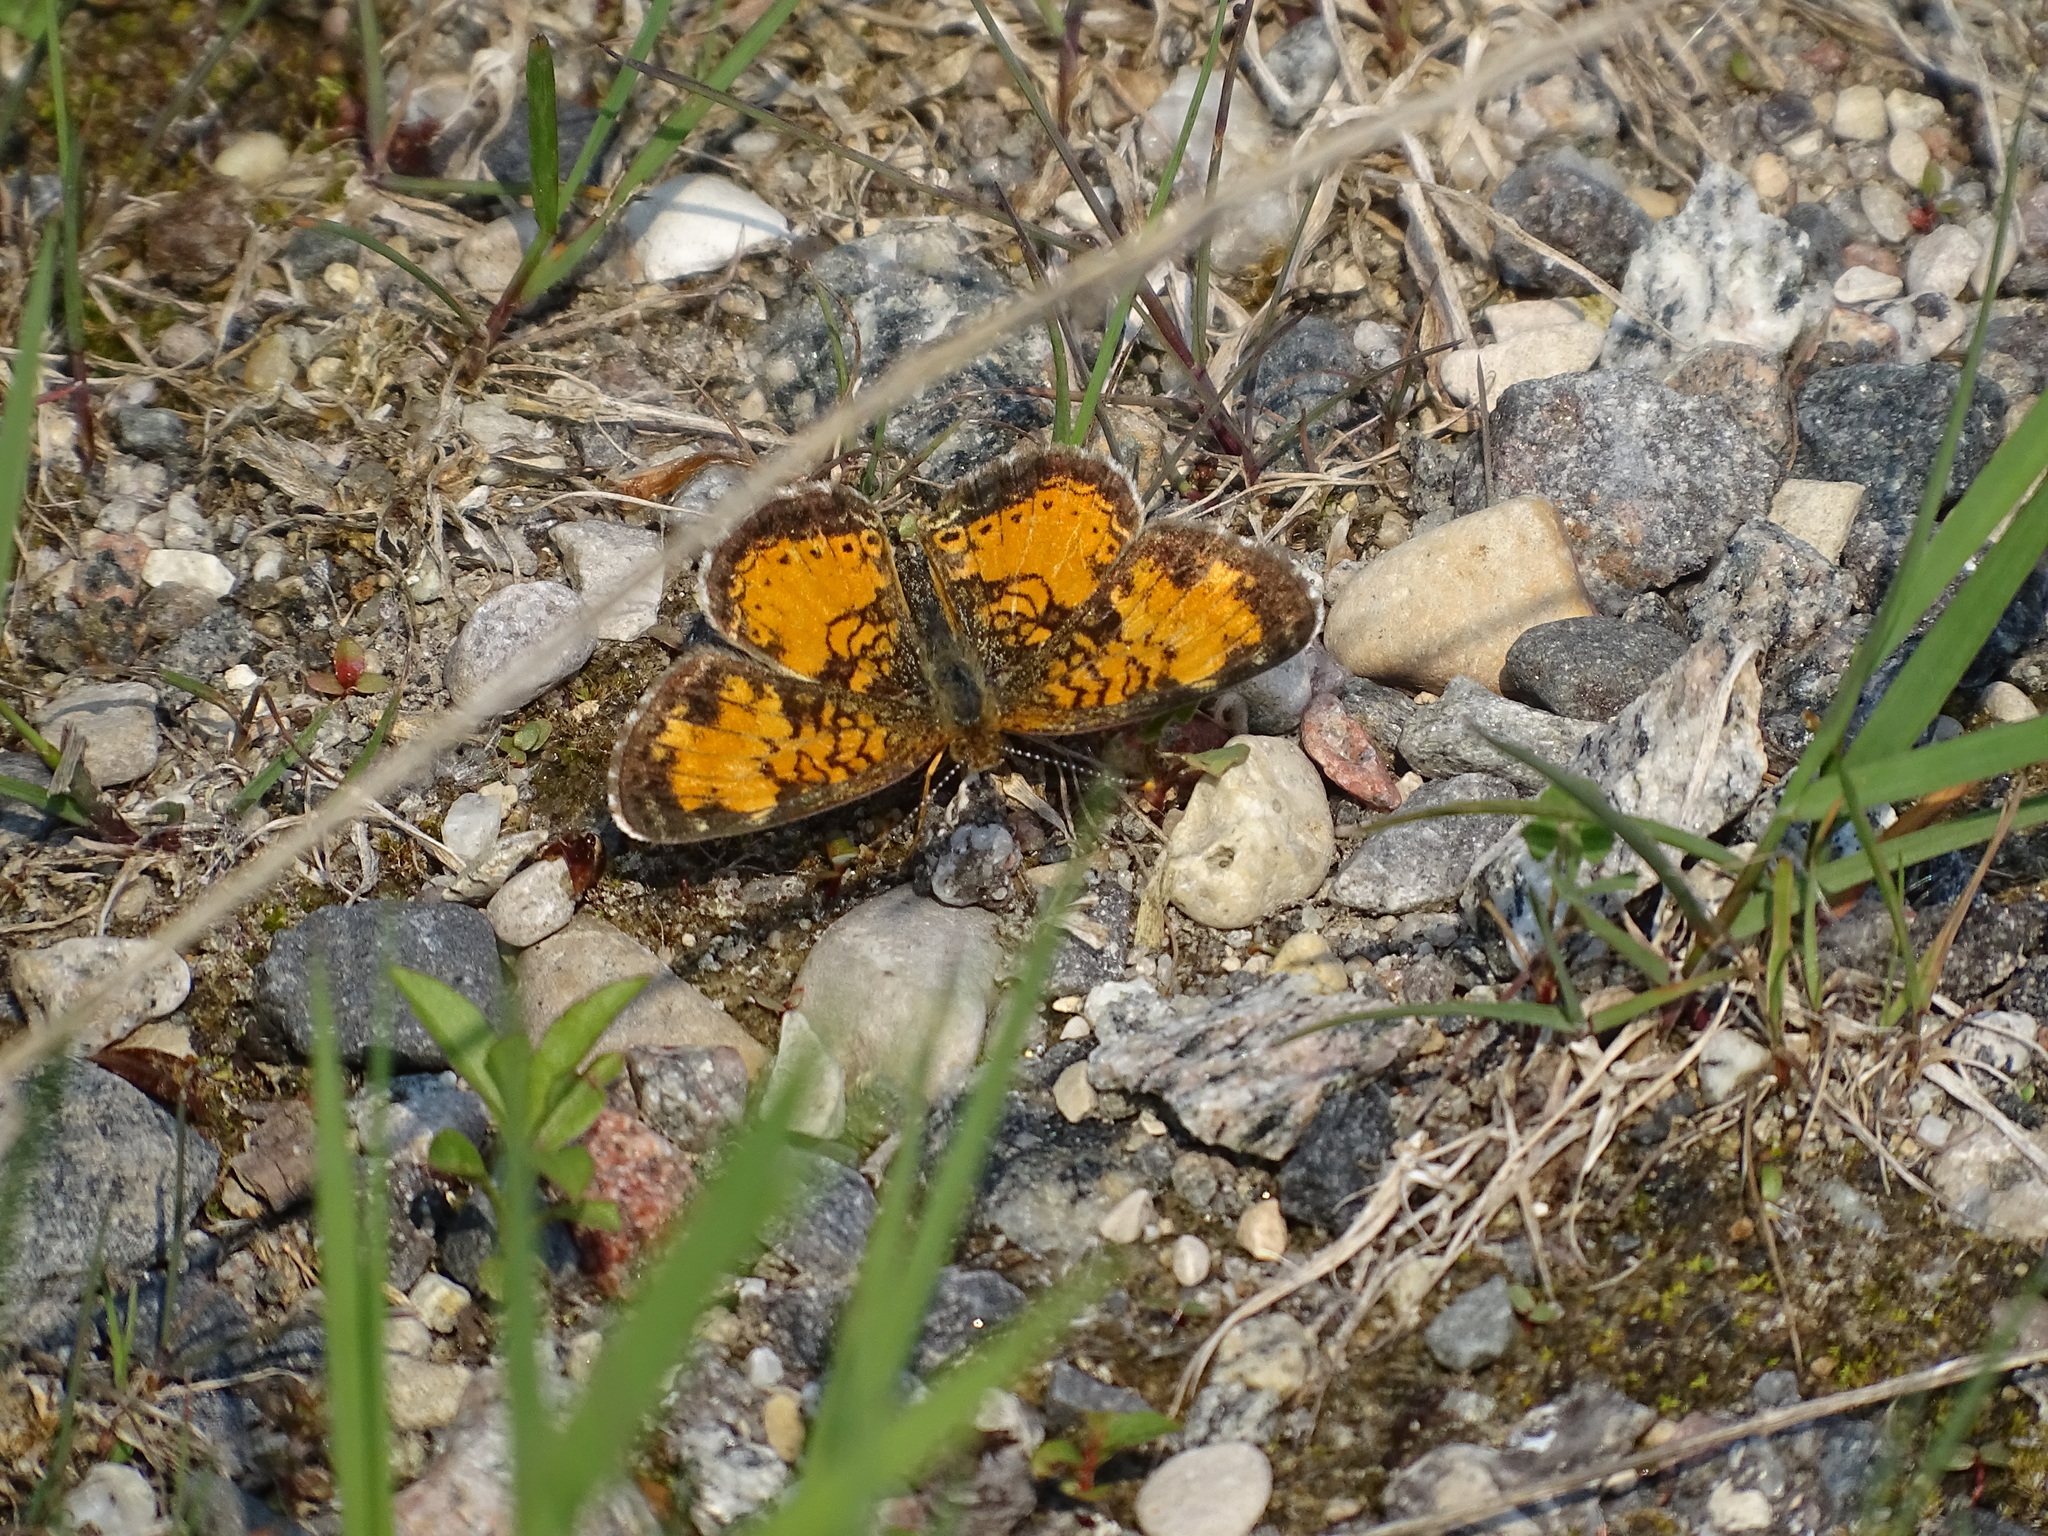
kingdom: Animalia
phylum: Arthropoda
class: Insecta
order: Lepidoptera
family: Nymphalidae
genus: Phyciodes
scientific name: Phyciodes tharos
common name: Pearl crescent
